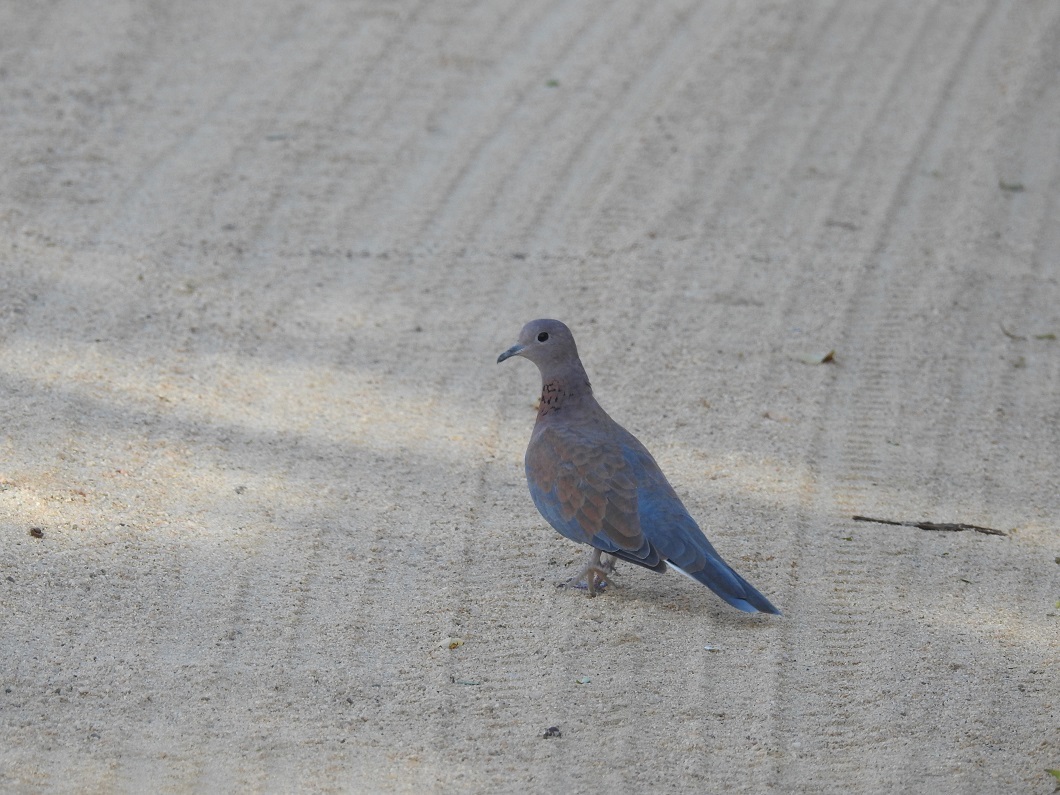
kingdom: Animalia
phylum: Chordata
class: Aves
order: Columbiformes
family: Columbidae
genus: Spilopelia
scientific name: Spilopelia senegalensis
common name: Laughing dove
